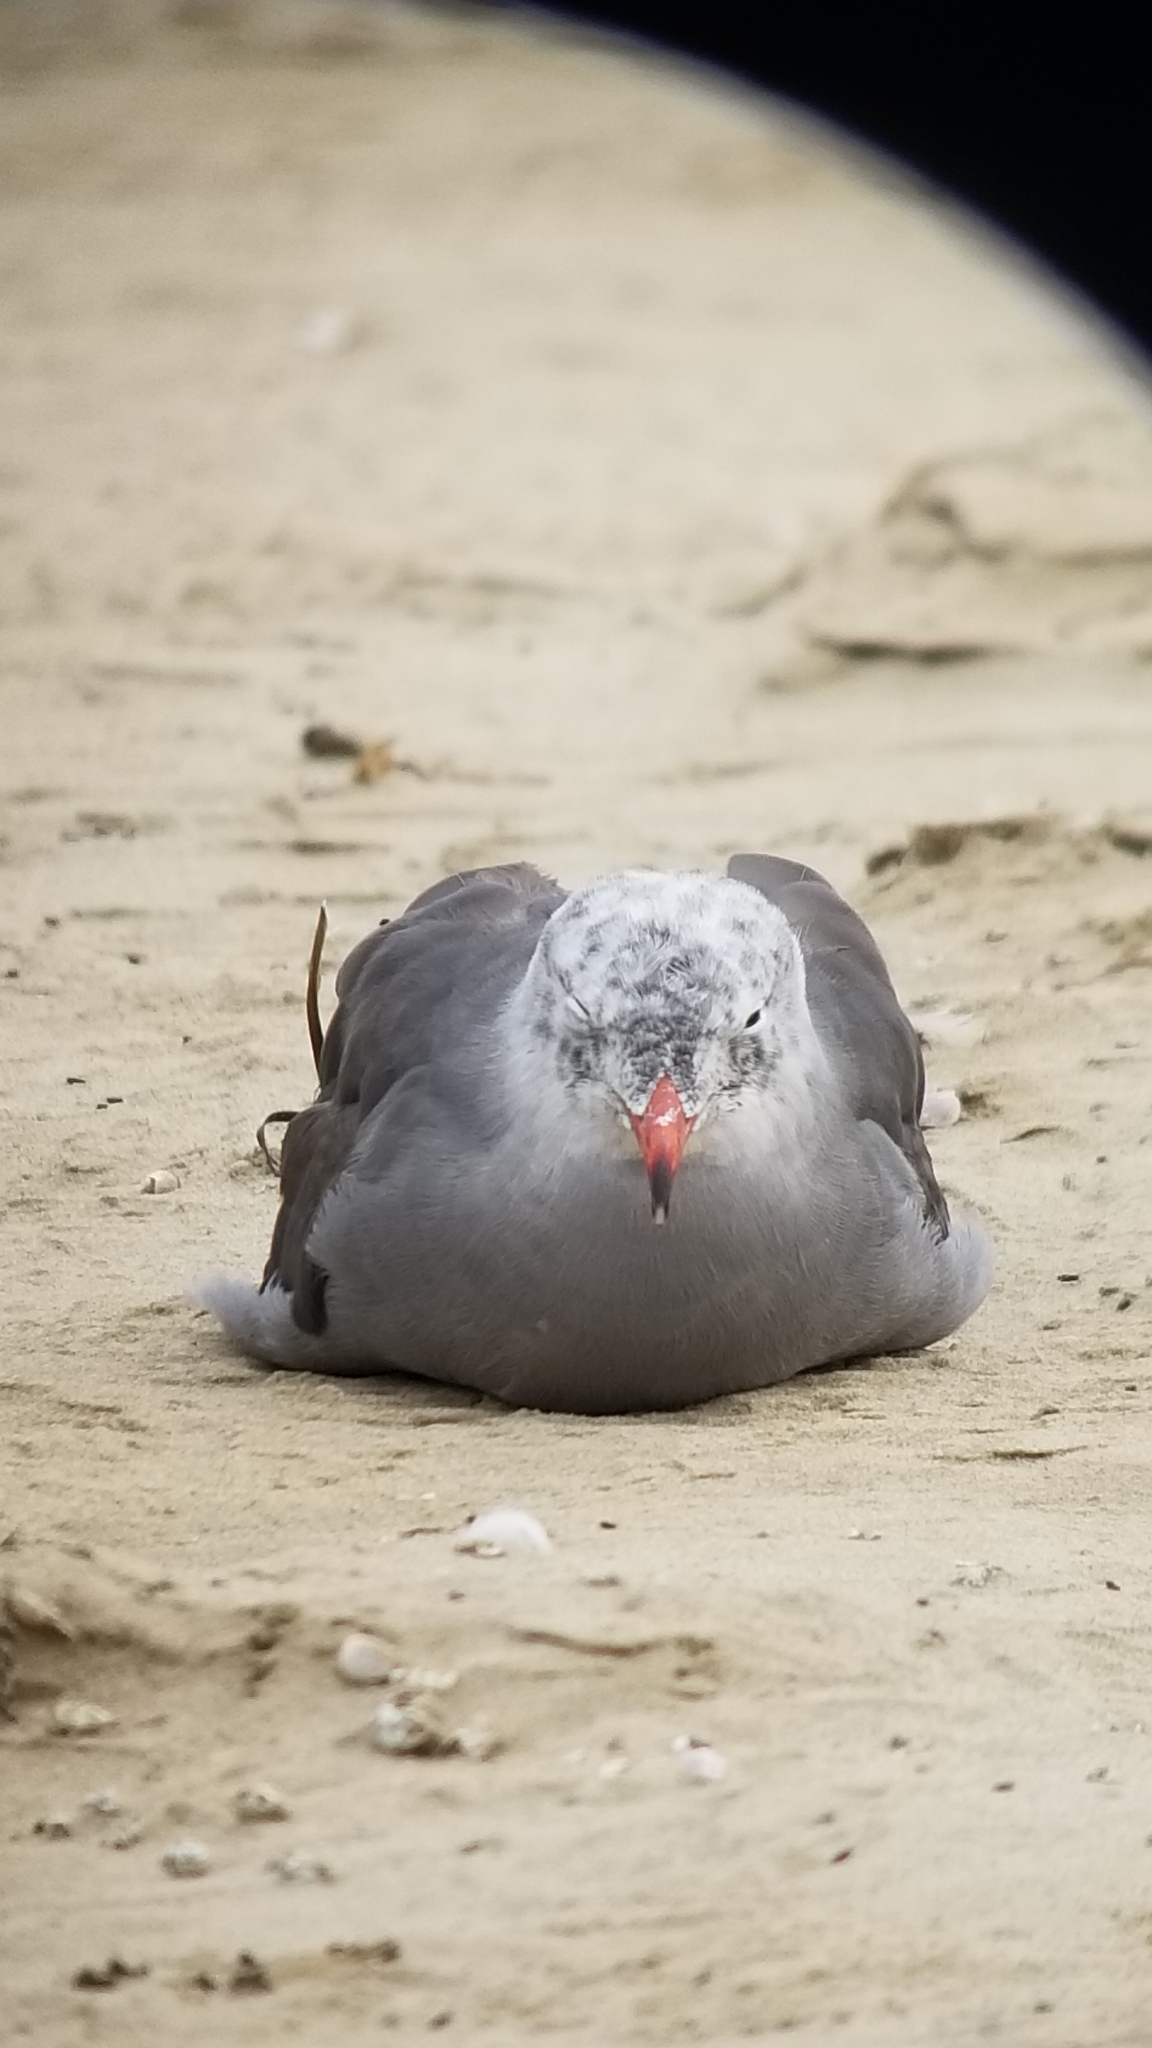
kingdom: Animalia
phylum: Chordata
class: Aves
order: Charadriiformes
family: Laridae
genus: Larus
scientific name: Larus heermanni
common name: Heermann's gull
